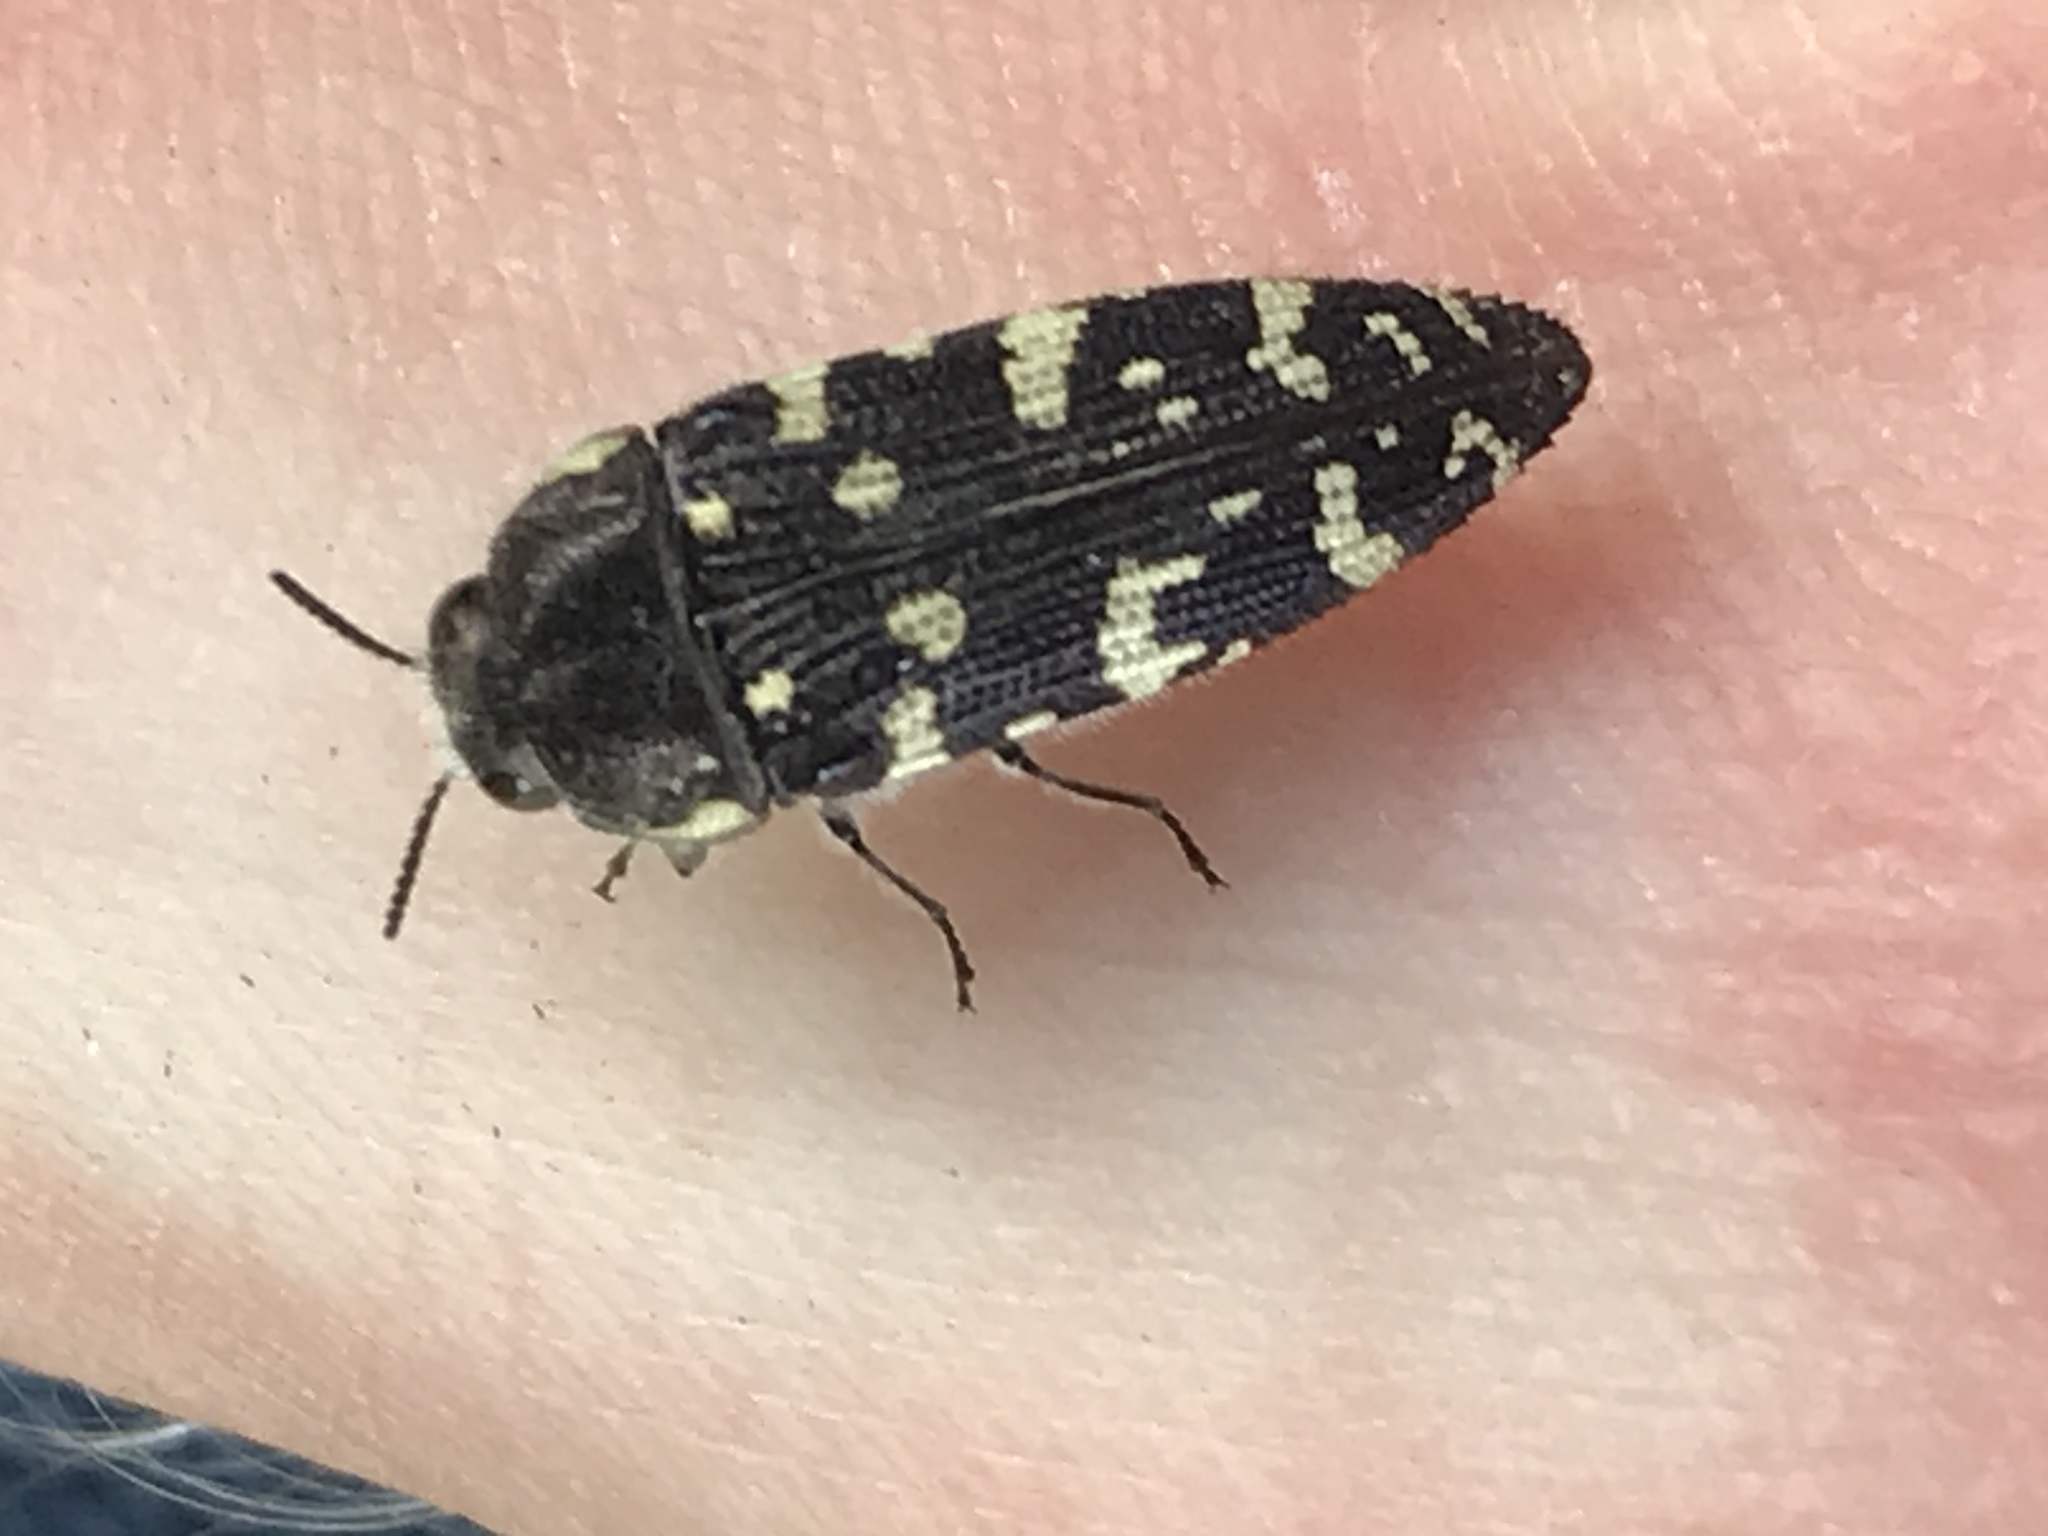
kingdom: Animalia
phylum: Arthropoda
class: Insecta
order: Coleoptera
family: Buprestidae
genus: Acmaeodera
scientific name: Acmaeodera macra
